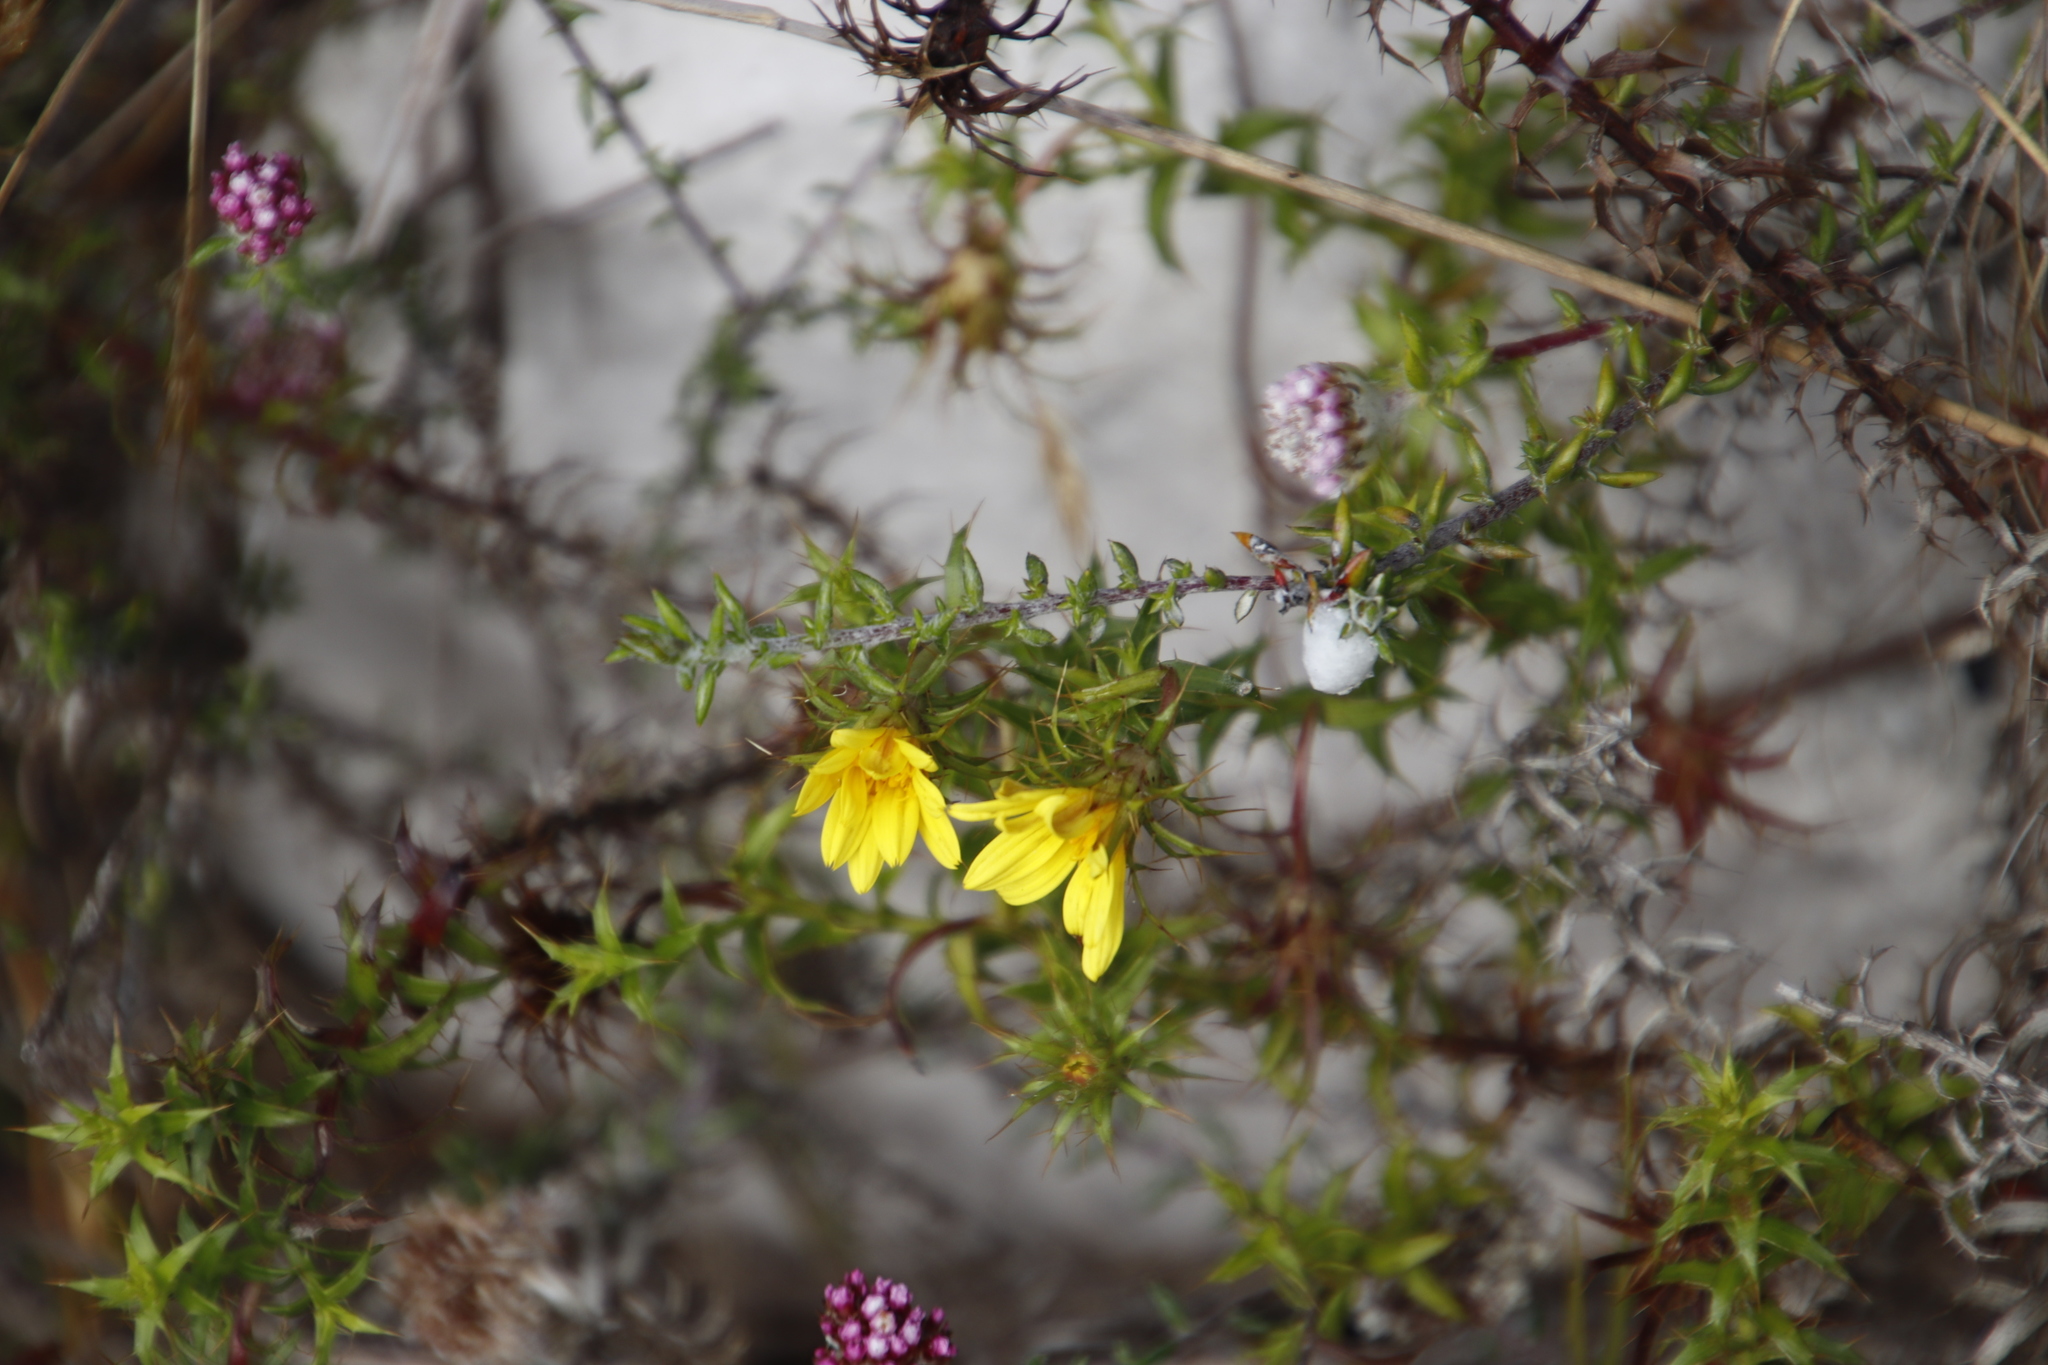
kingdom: Plantae
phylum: Tracheophyta
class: Magnoliopsida
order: Asterales
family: Asteraceae
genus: Cullumia
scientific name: Cullumia setosa
